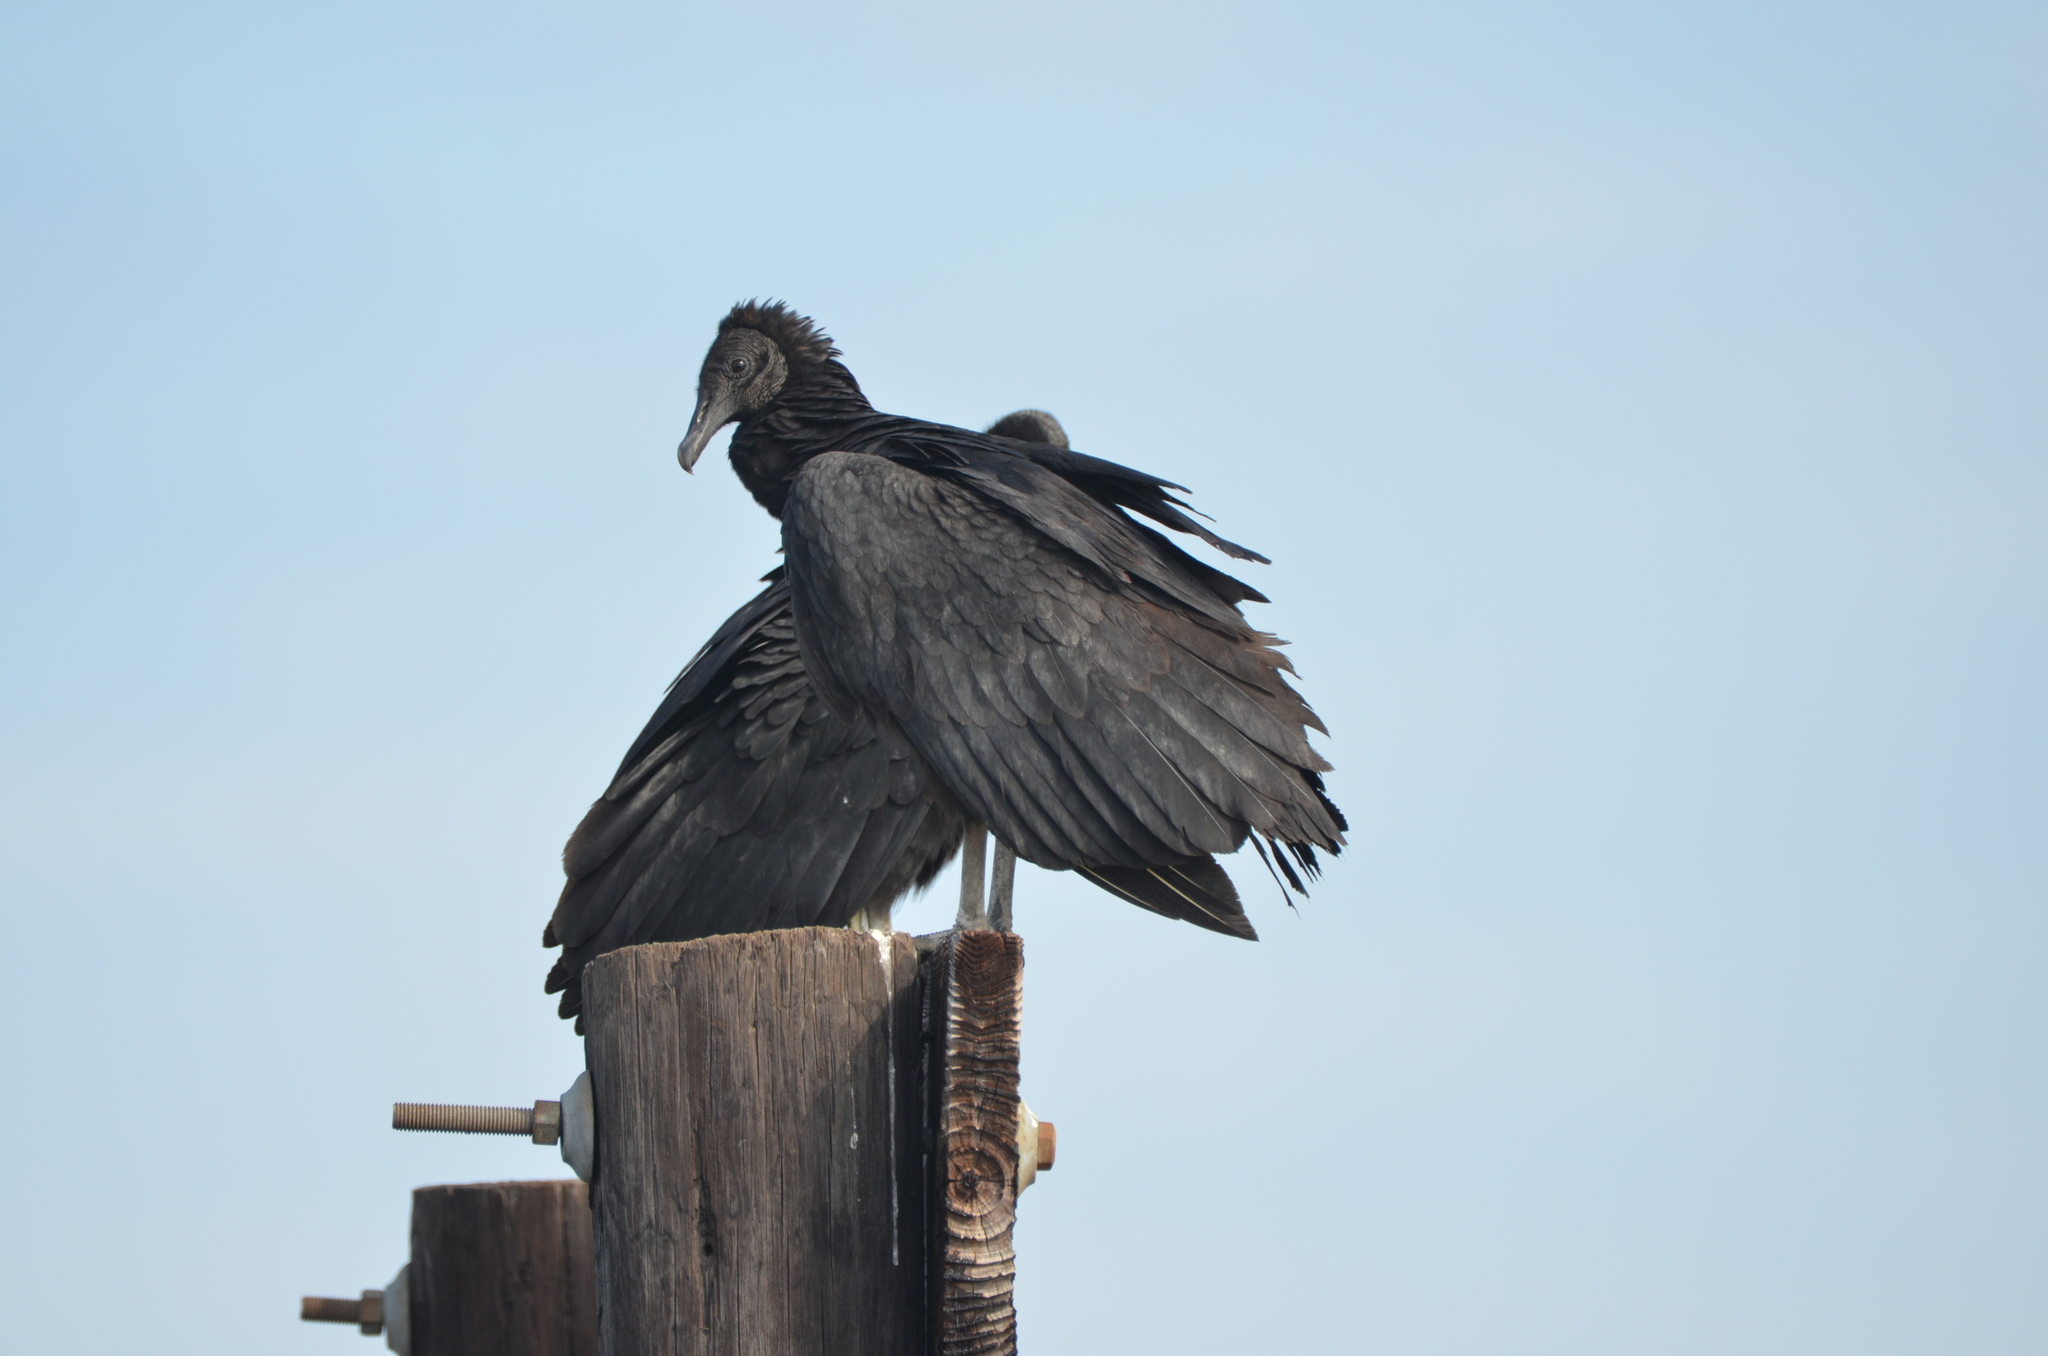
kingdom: Animalia
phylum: Chordata
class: Aves
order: Accipitriformes
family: Cathartidae
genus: Coragyps
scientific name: Coragyps atratus
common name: Black vulture
